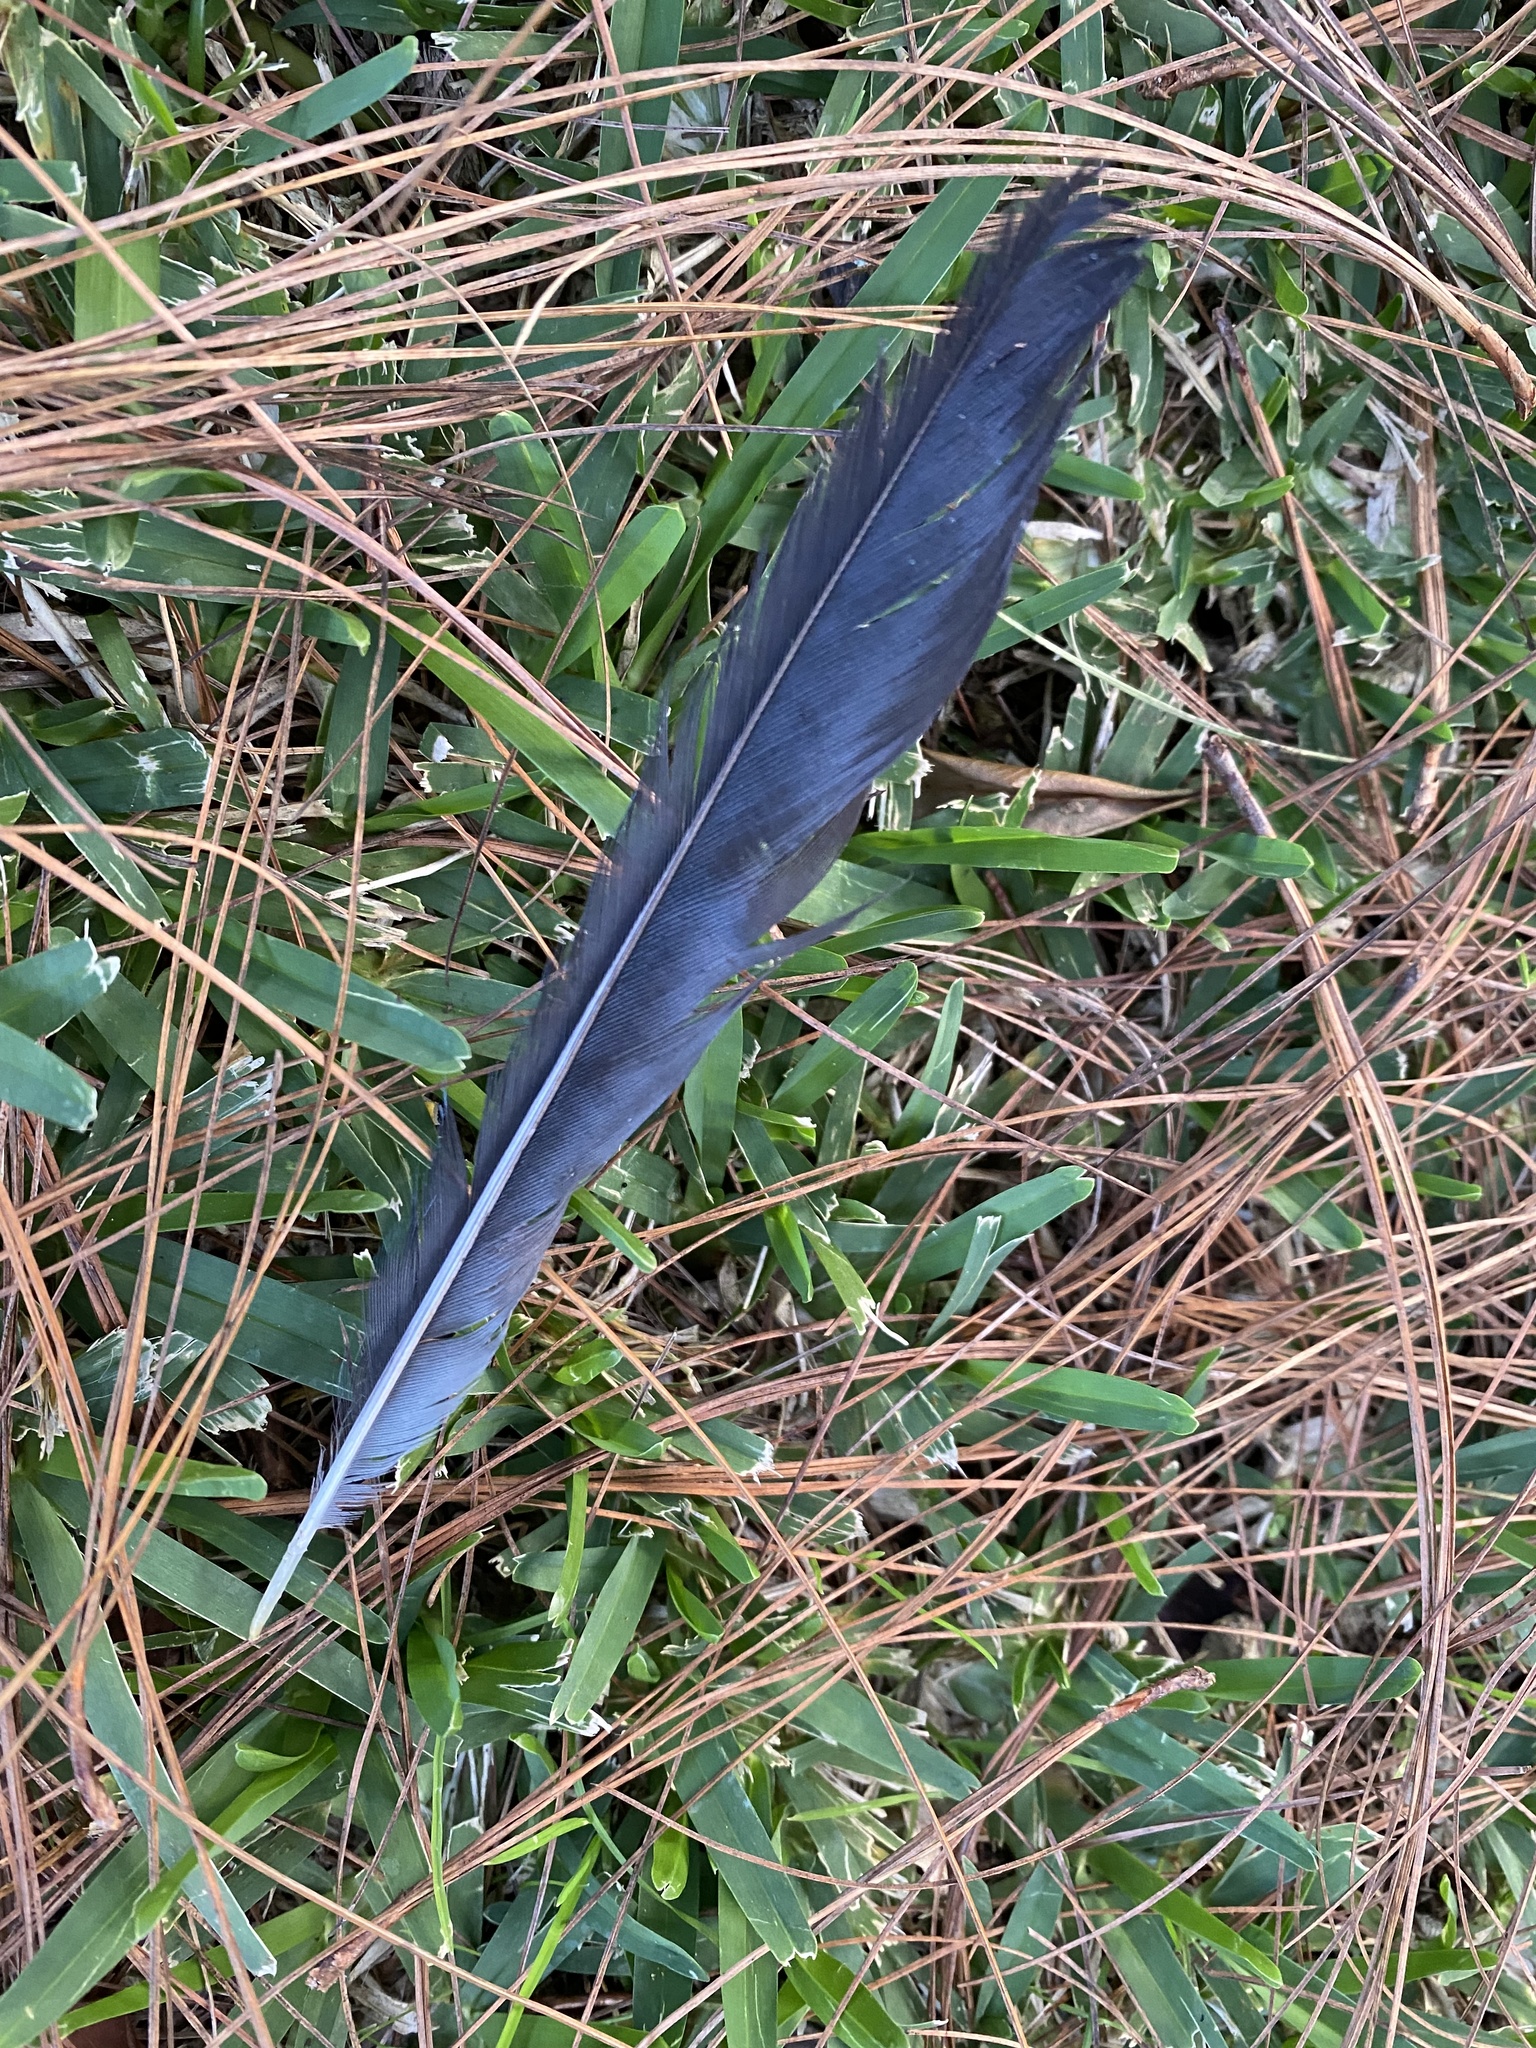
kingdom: Animalia
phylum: Chordata
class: Aves
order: Passeriformes
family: Corvidae
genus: Cyanocorax
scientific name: Cyanocorax melanocyaneus
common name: Bushy-crested jay
